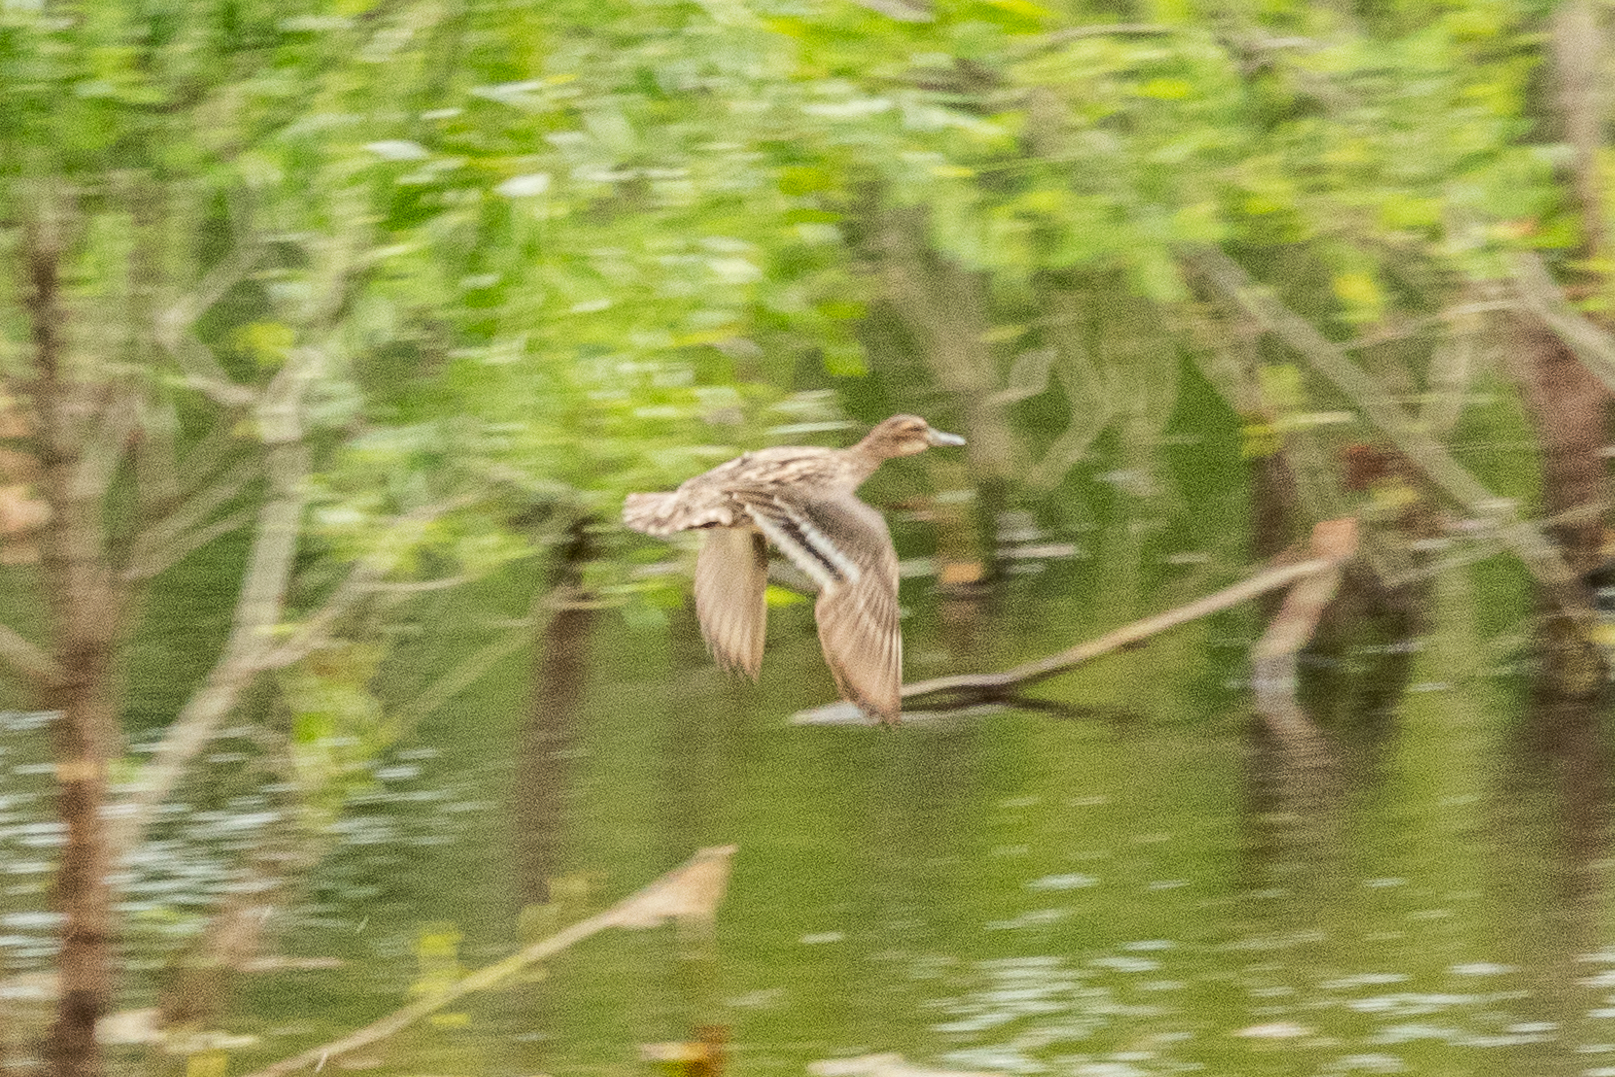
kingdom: Animalia
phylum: Chordata
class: Aves
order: Anseriformes
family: Anatidae
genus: Anas
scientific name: Anas platyrhynchos
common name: Mallard
